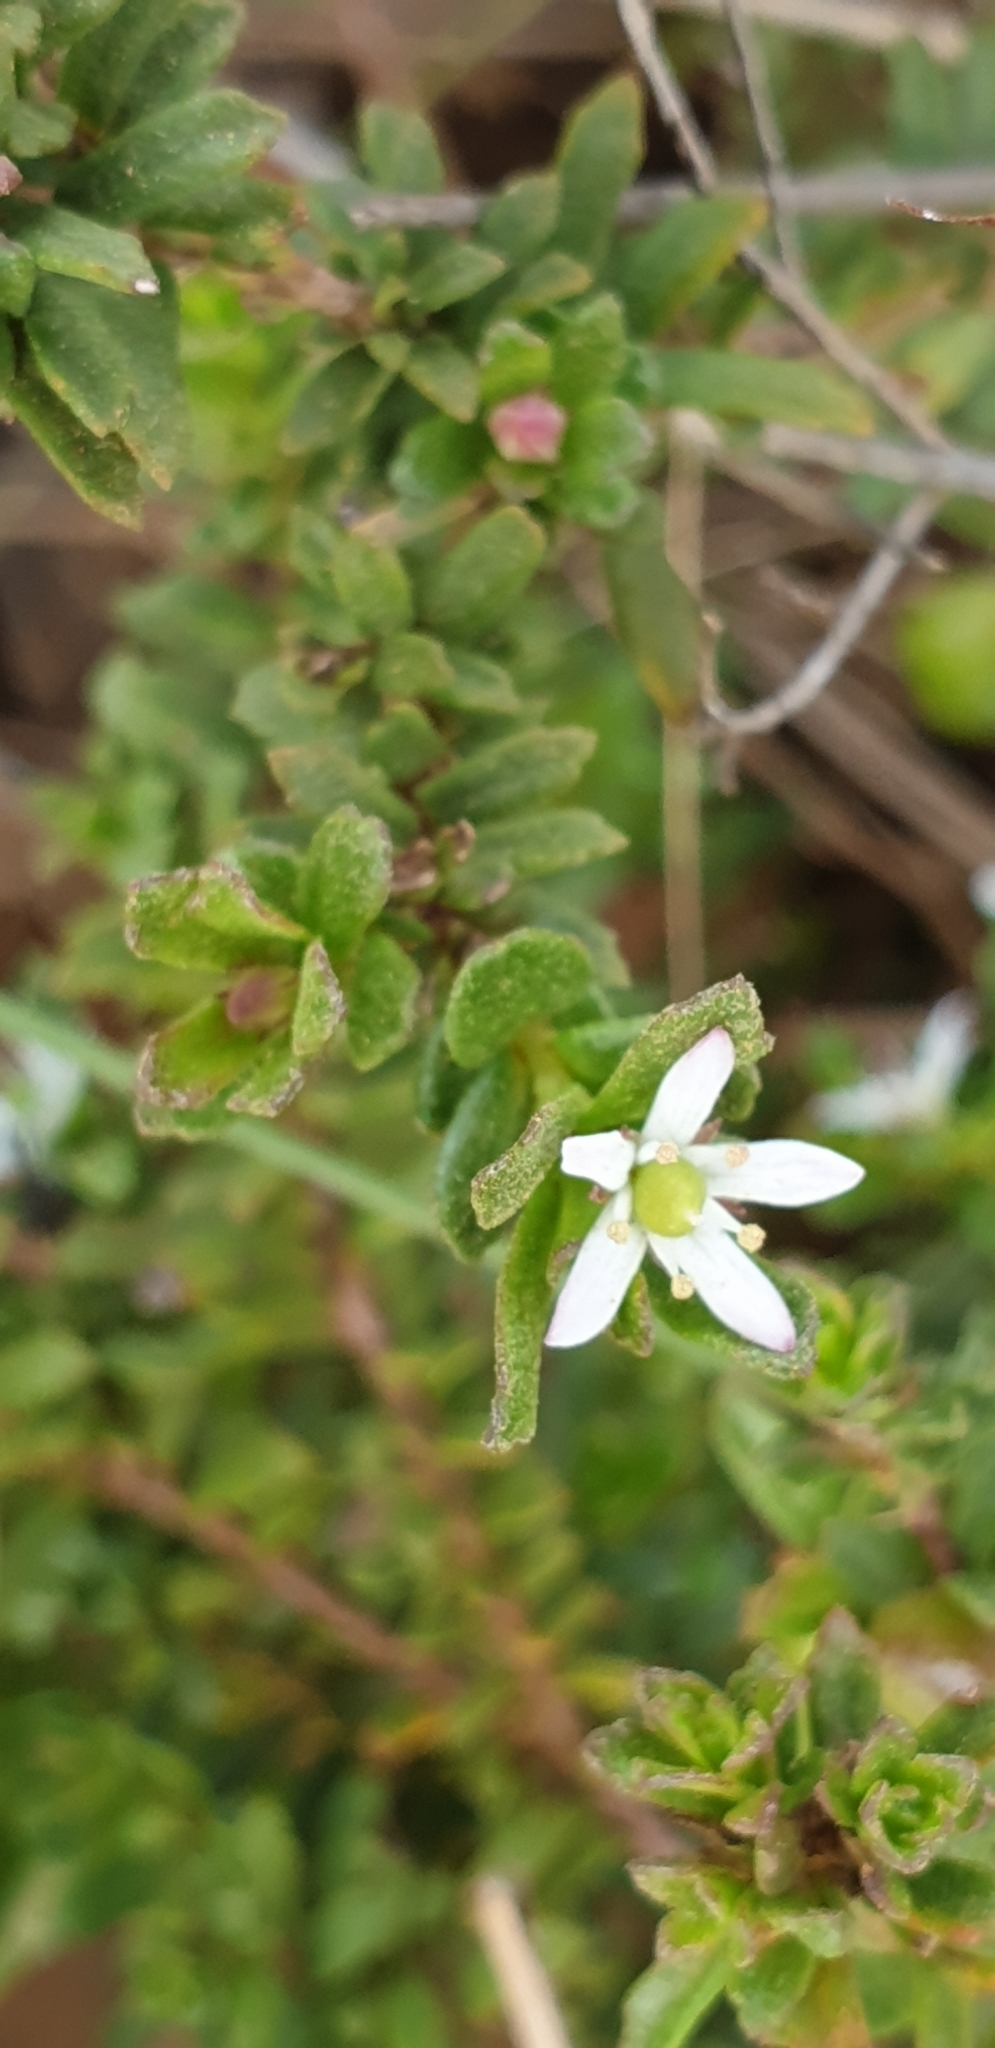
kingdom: Plantae
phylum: Tracheophyta
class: Magnoliopsida
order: Apiales
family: Pittosporaceae
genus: Rhytidosporum
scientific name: Rhytidosporum procumbens
